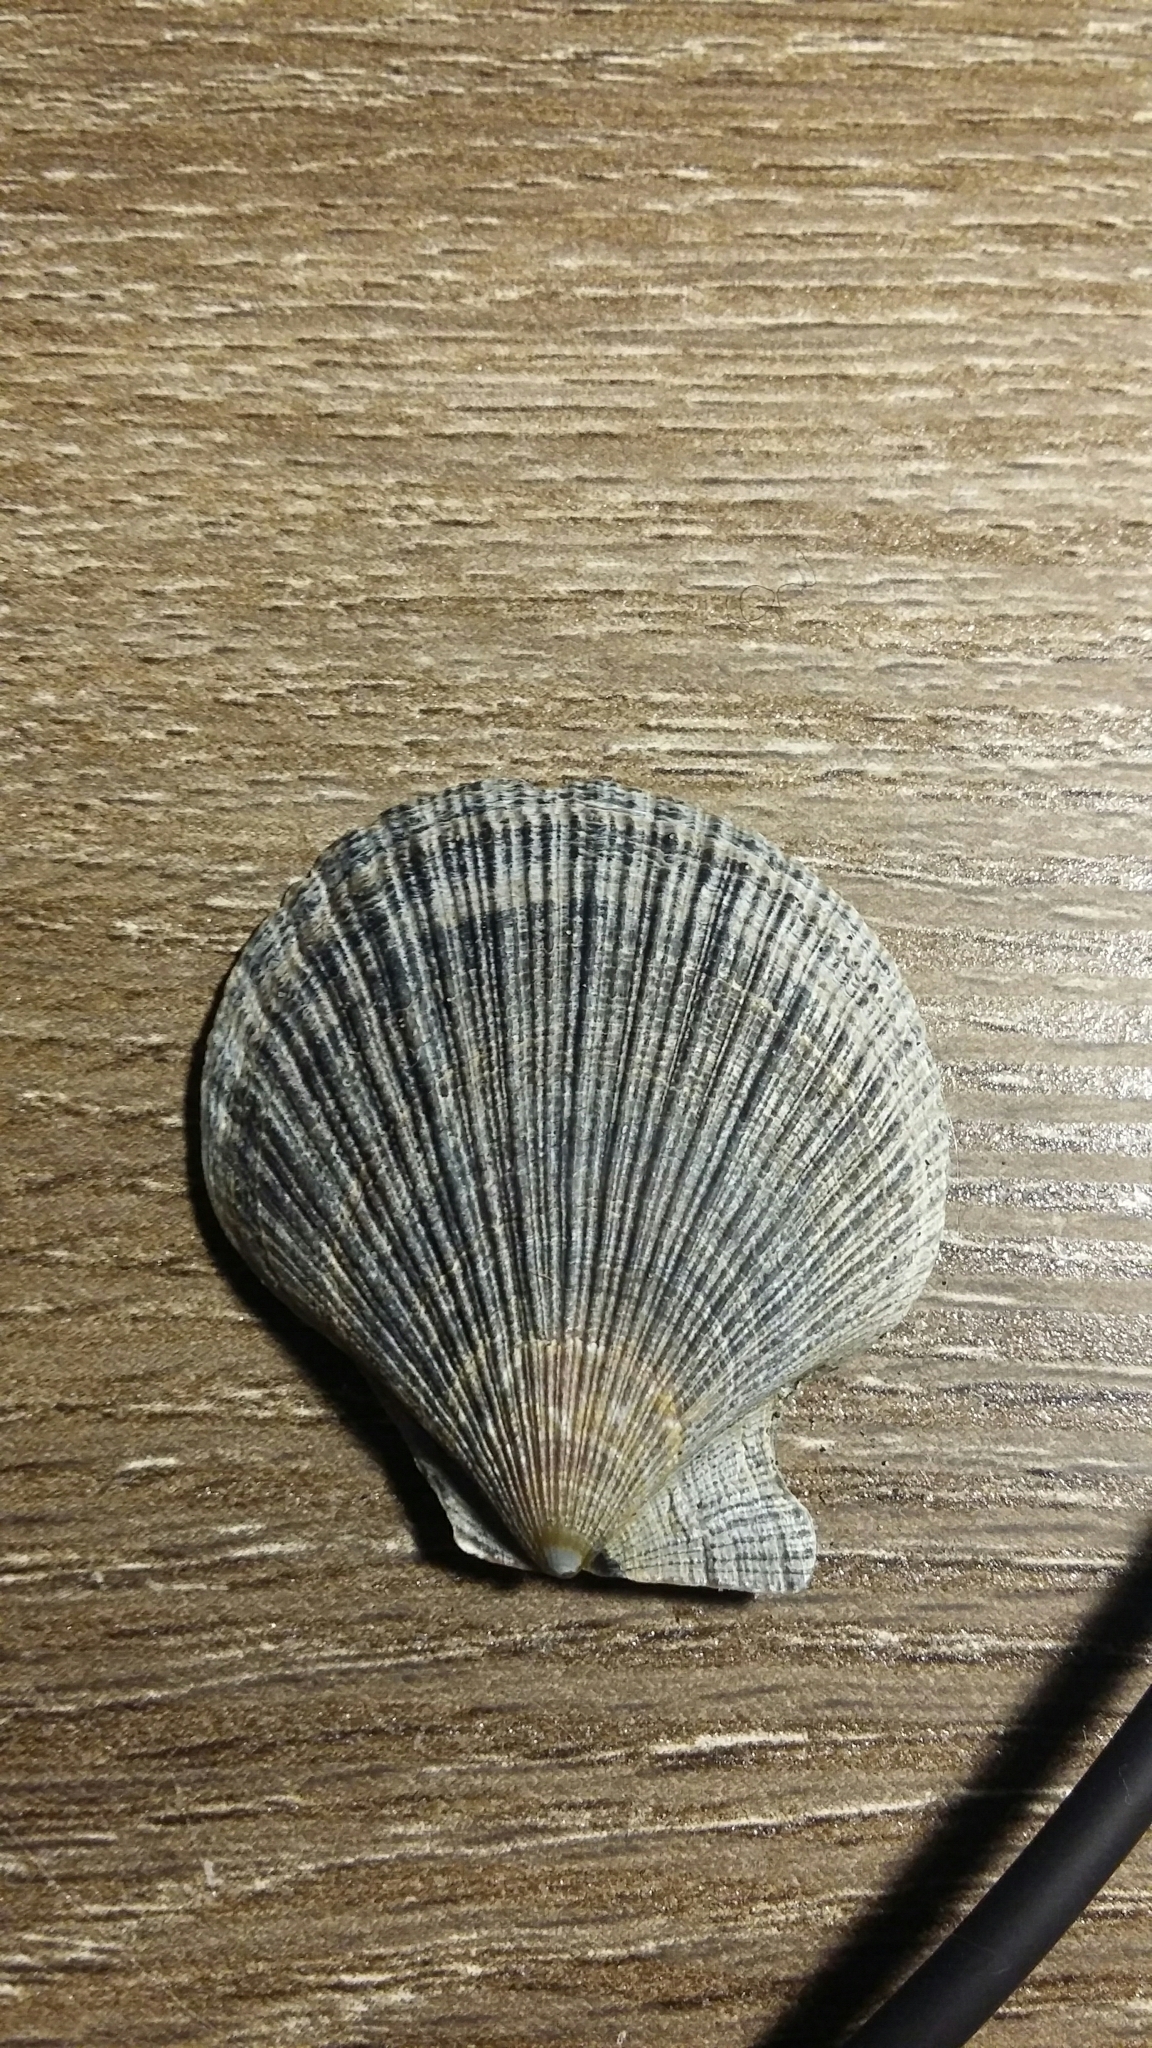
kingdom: Animalia
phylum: Mollusca
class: Bivalvia
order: Pectinida
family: Pectinidae
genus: Talochlamys
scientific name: Talochlamys zelandiae
